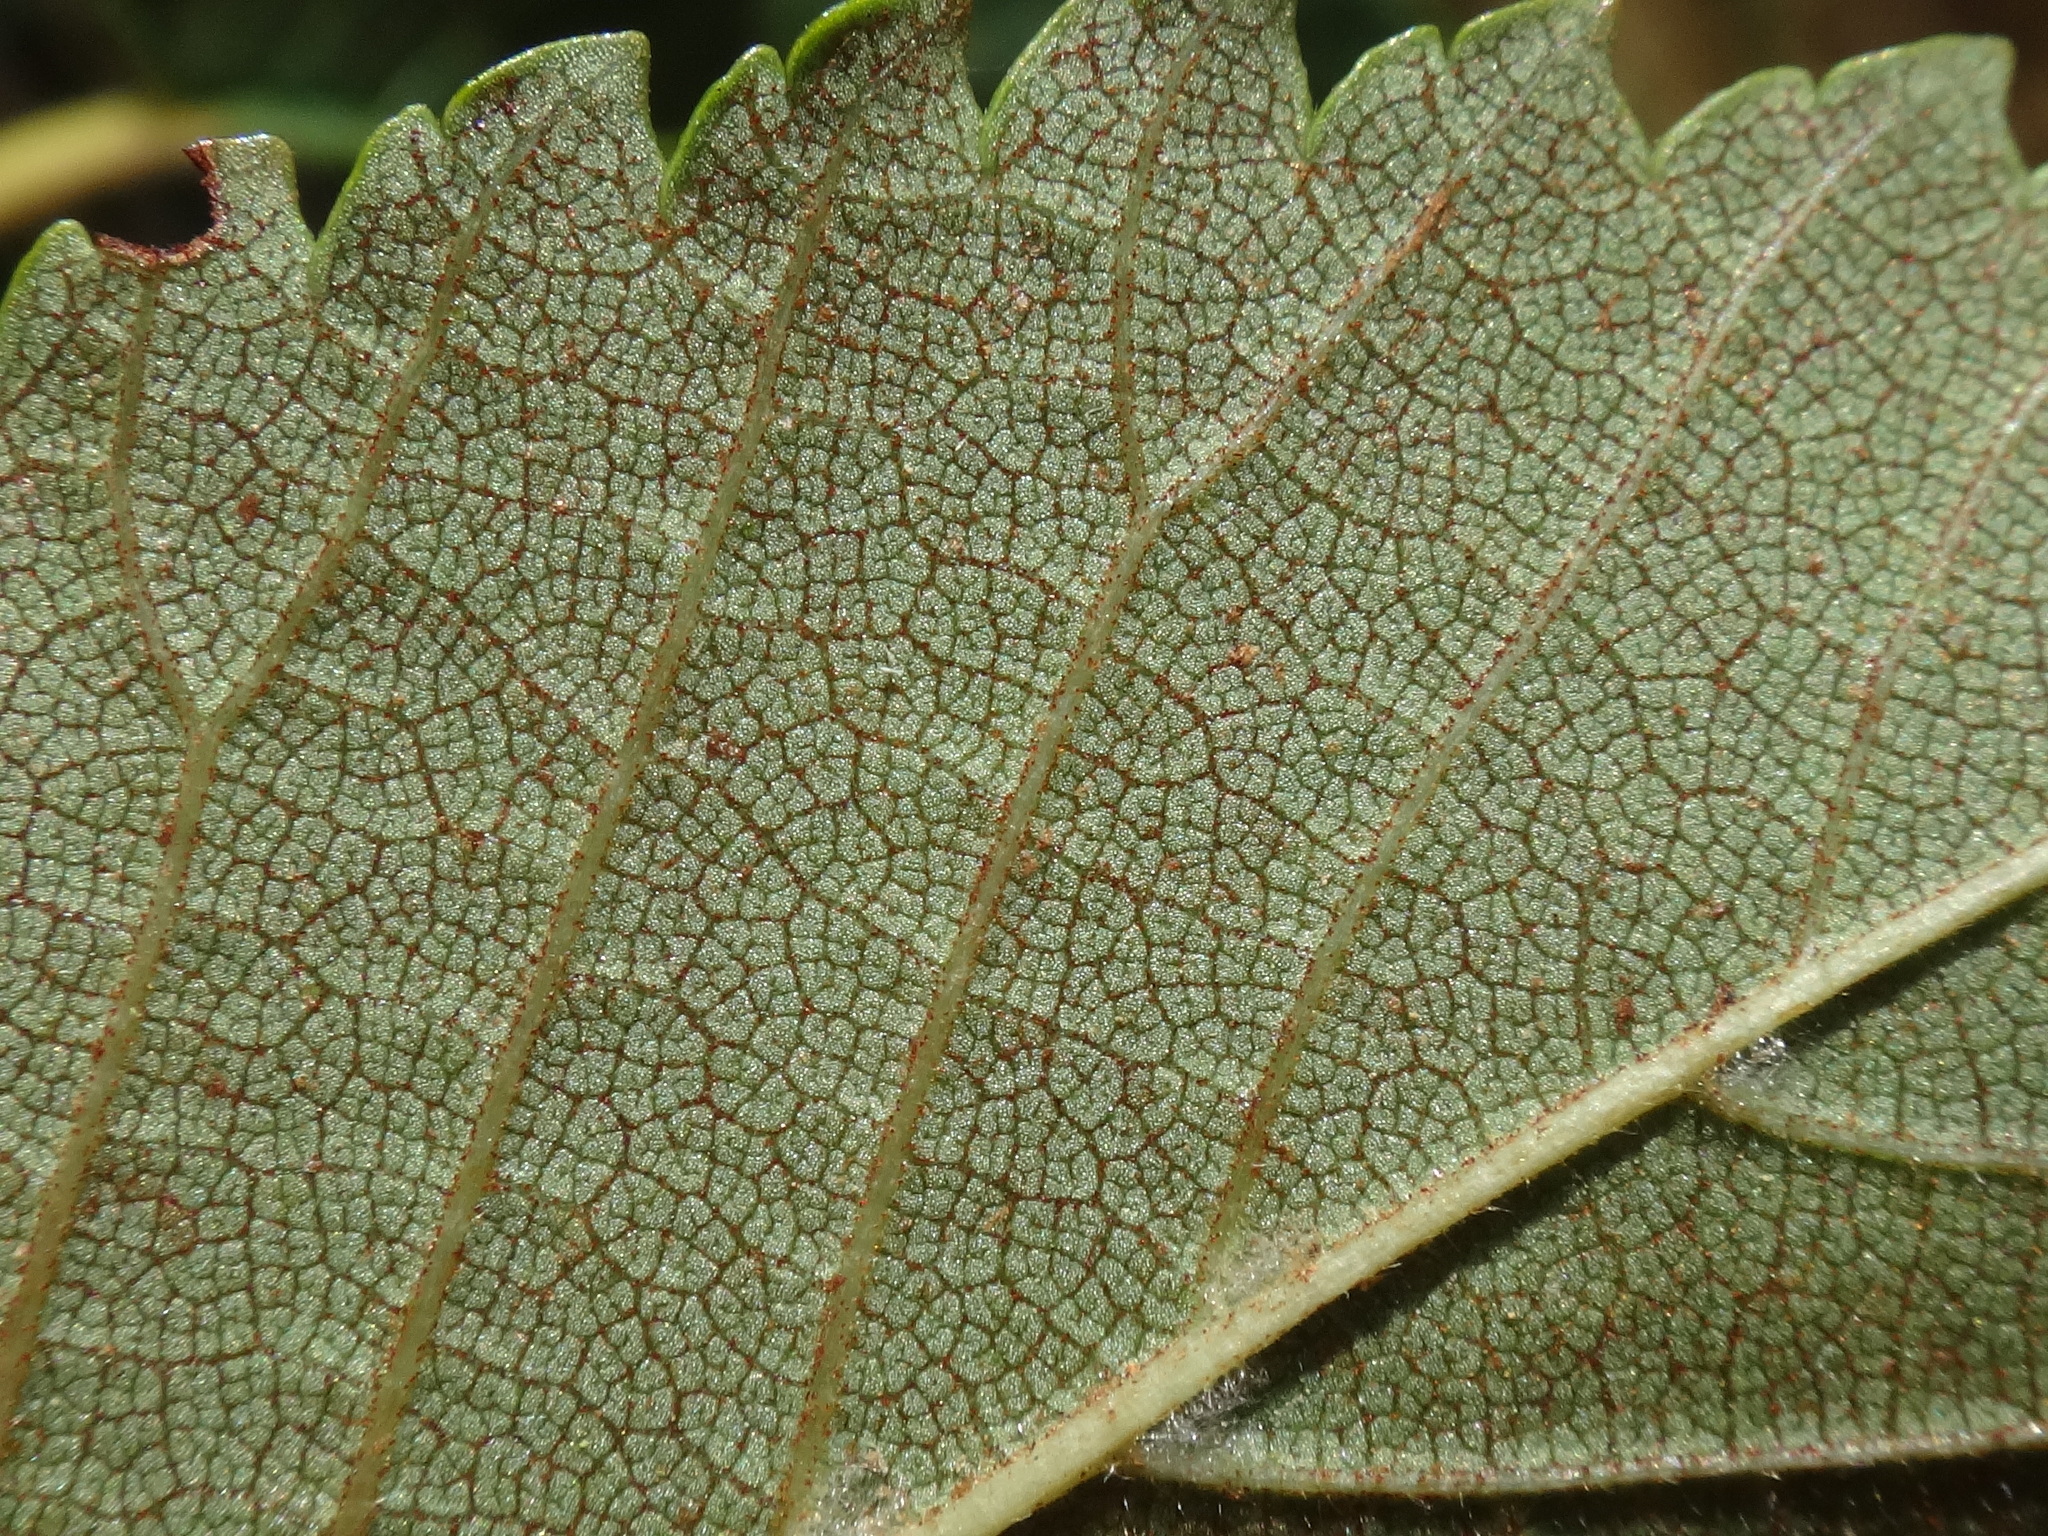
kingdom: Plantae
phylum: Tracheophyta
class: Magnoliopsida
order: Rosales
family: Ulmaceae
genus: Ulmus
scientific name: Ulmus minor
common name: Small-leaved elm
